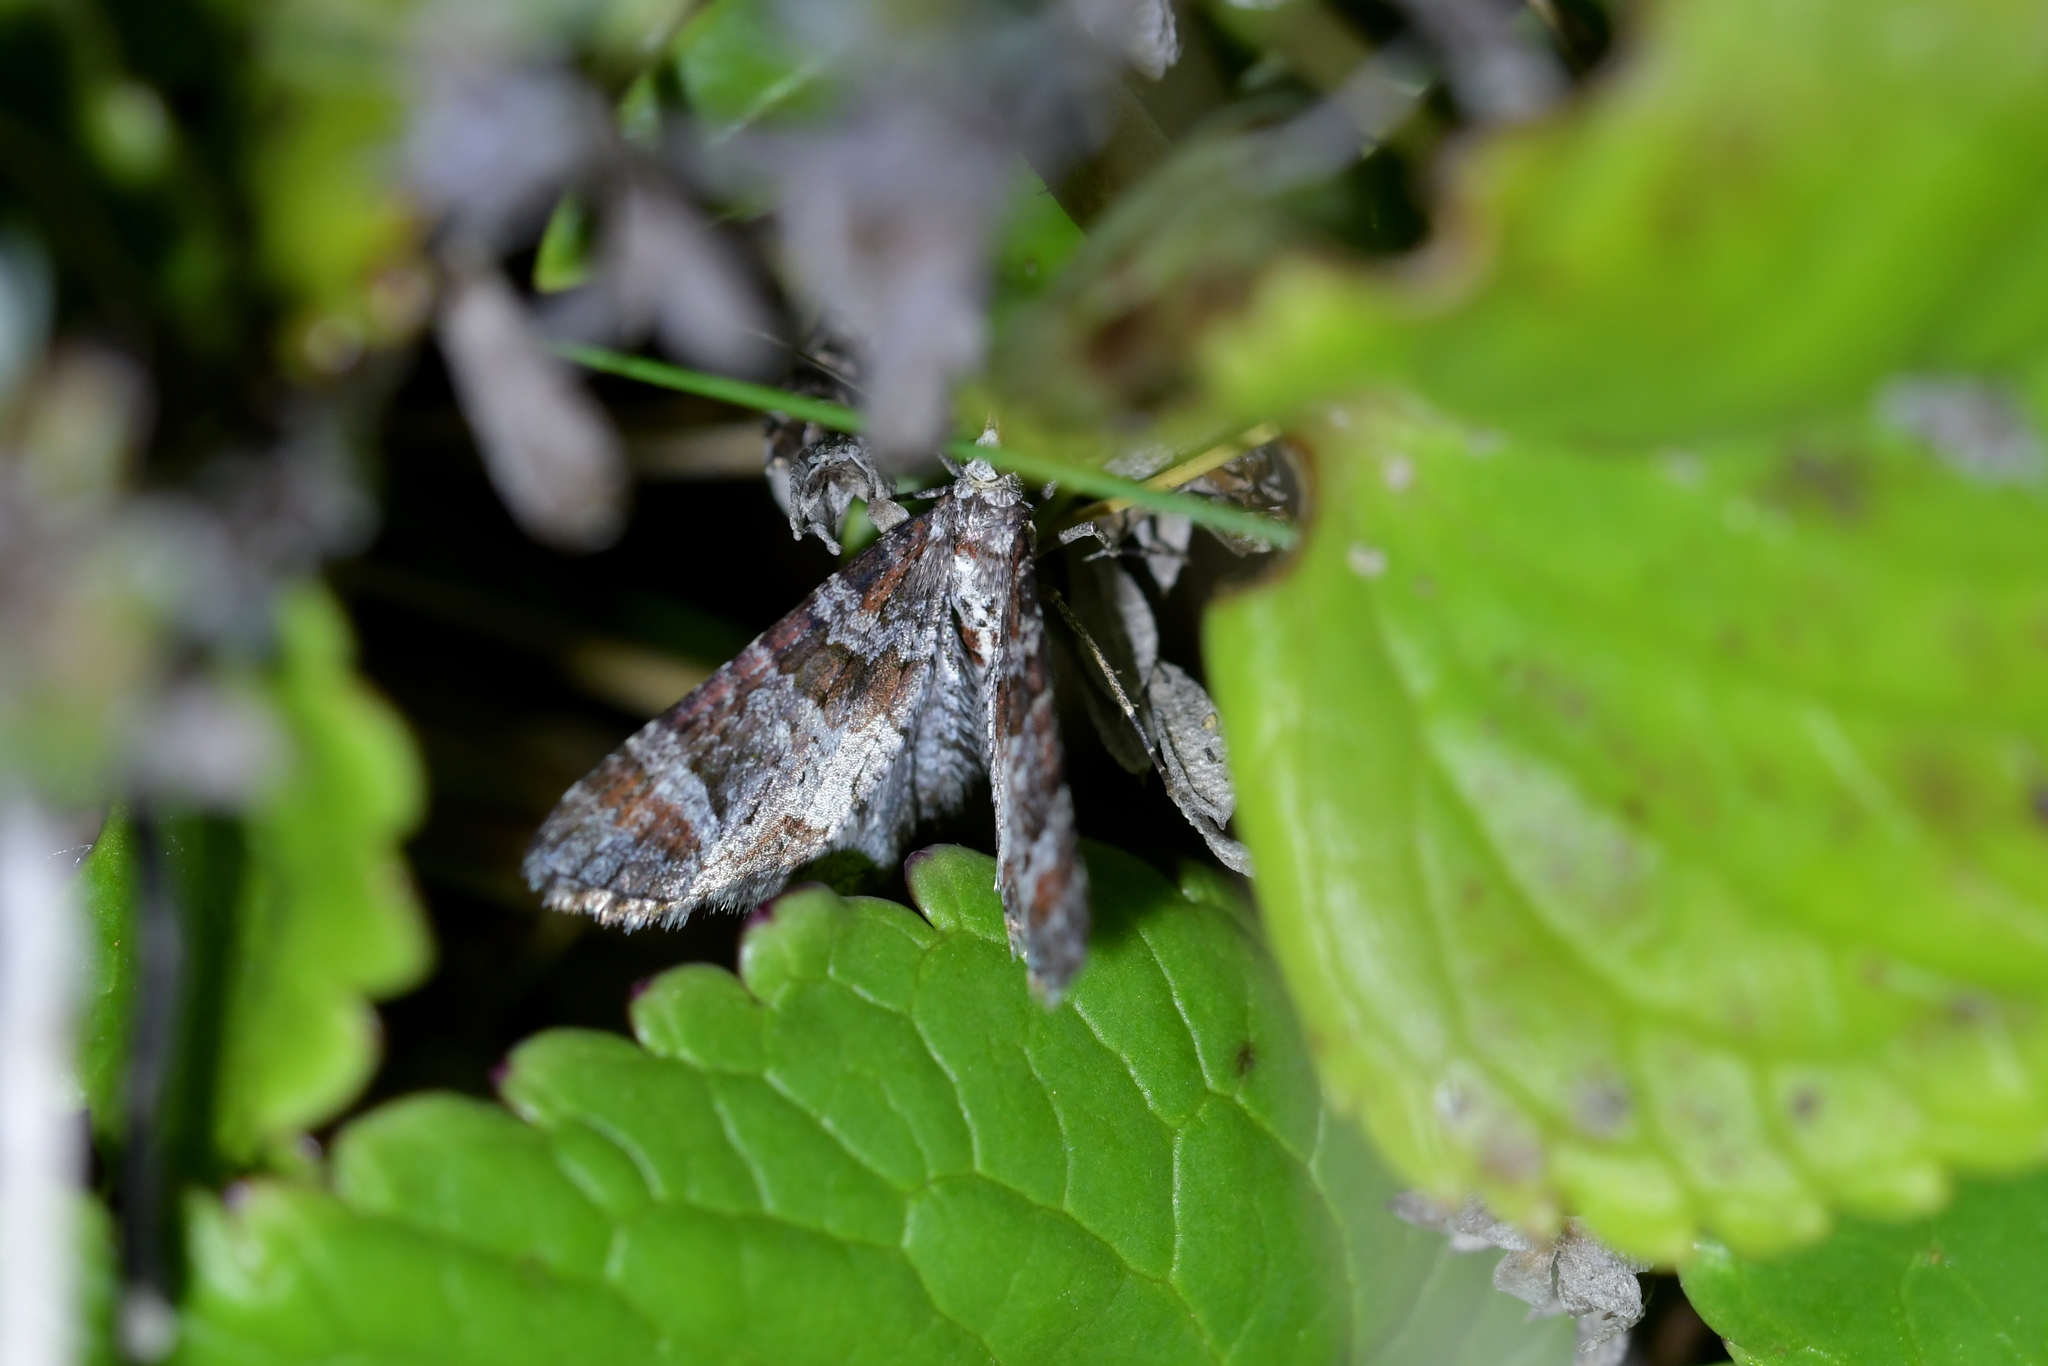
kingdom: Animalia
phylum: Arthropoda
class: Insecta
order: Lepidoptera
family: Geometridae
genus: Pasiphila
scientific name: Pasiphila halianthes
